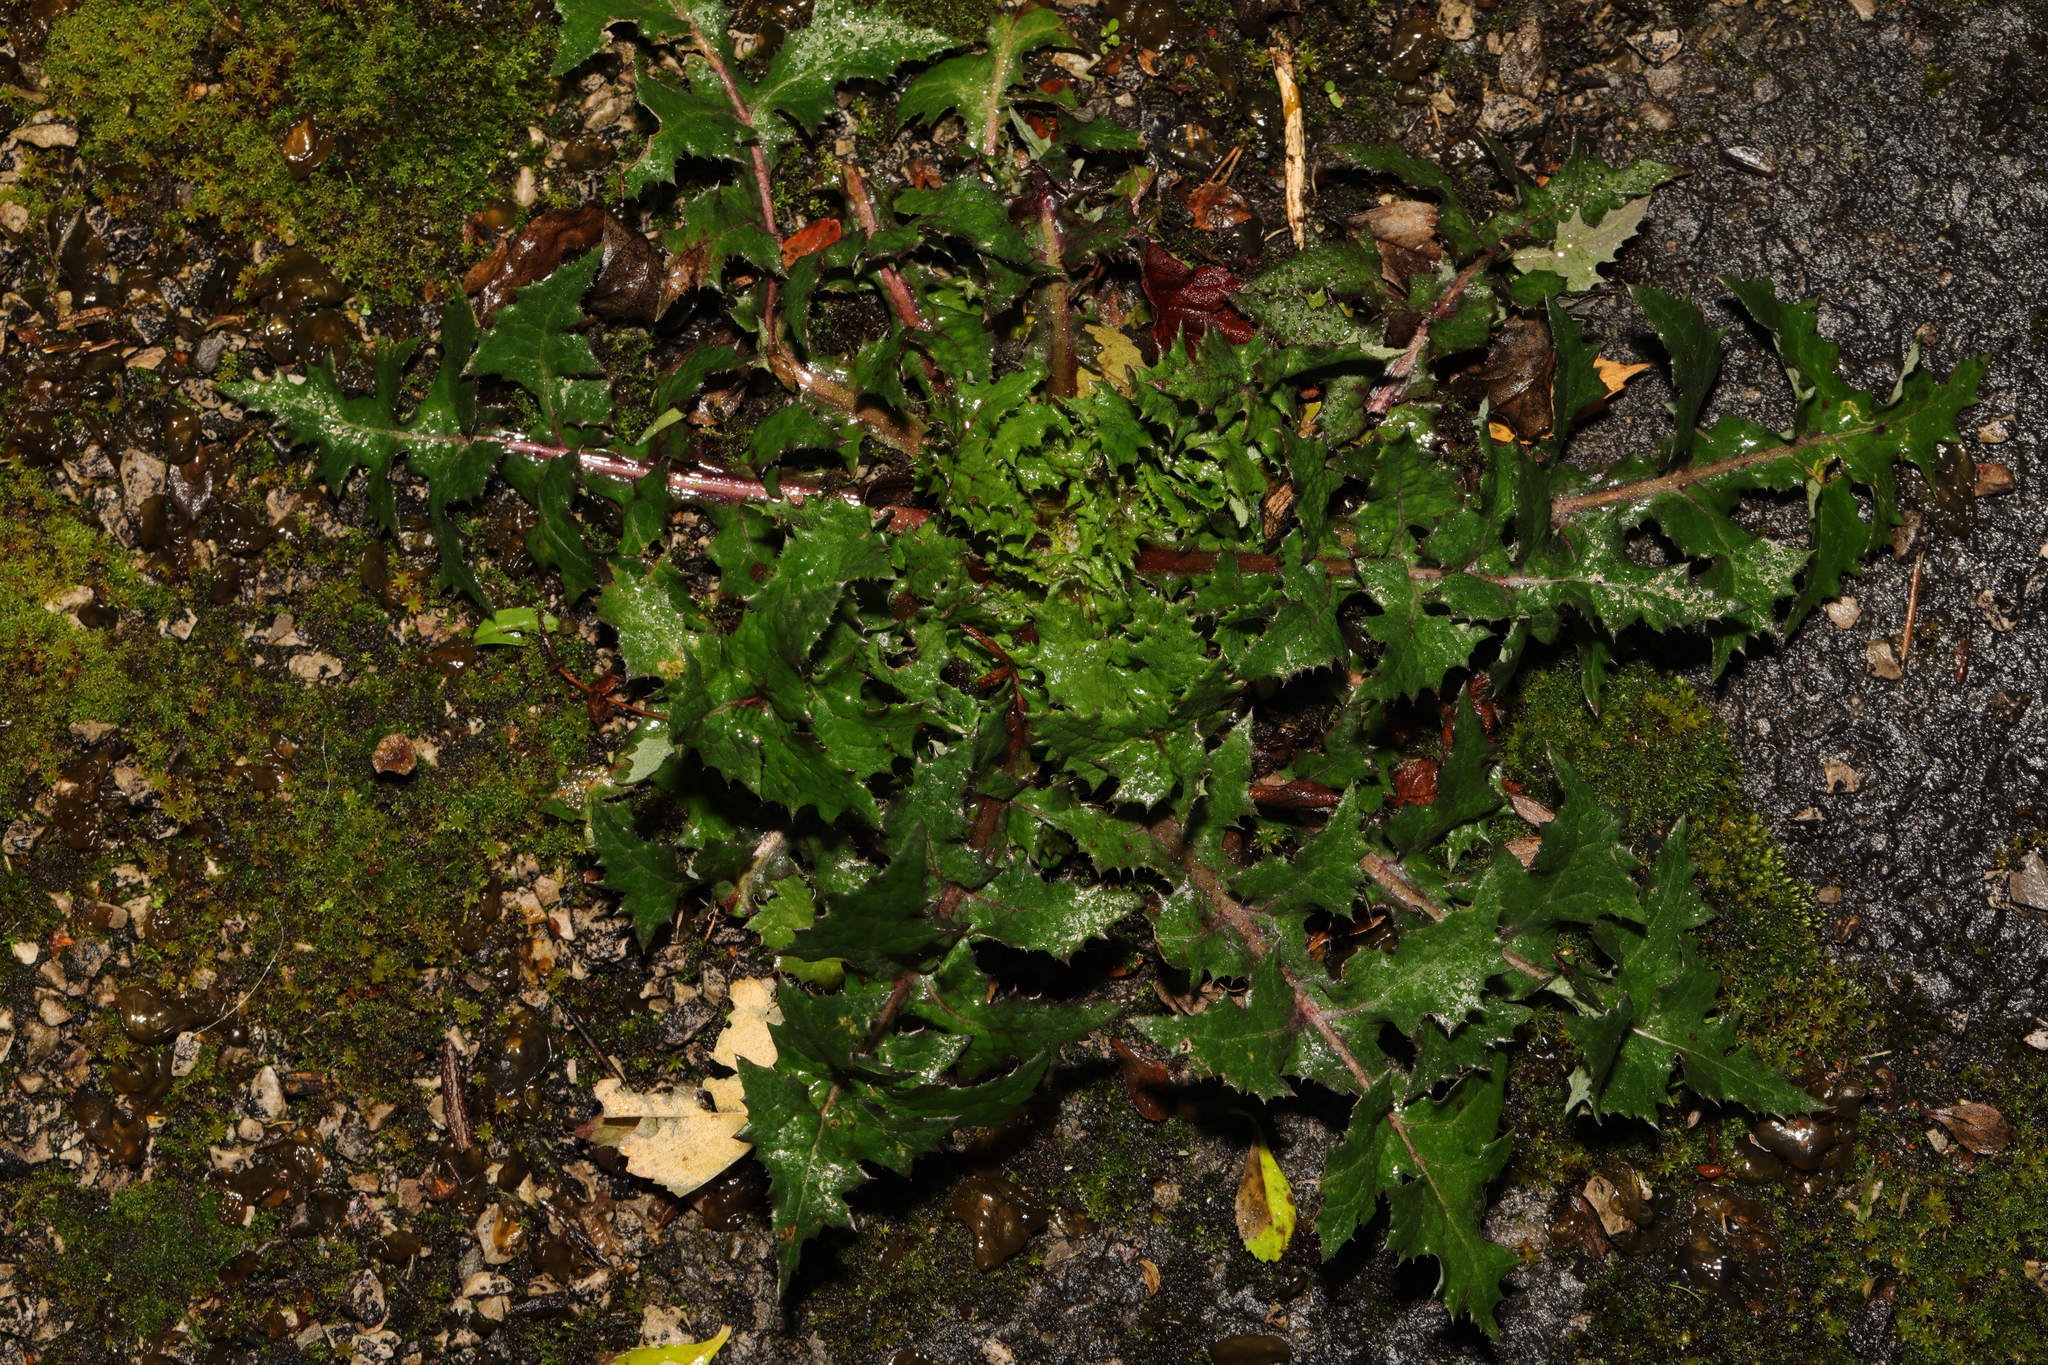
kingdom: Plantae
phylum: Tracheophyta
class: Magnoliopsida
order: Asterales
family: Asteraceae
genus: Sonchus
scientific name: Sonchus asper
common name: Prickly sow-thistle
